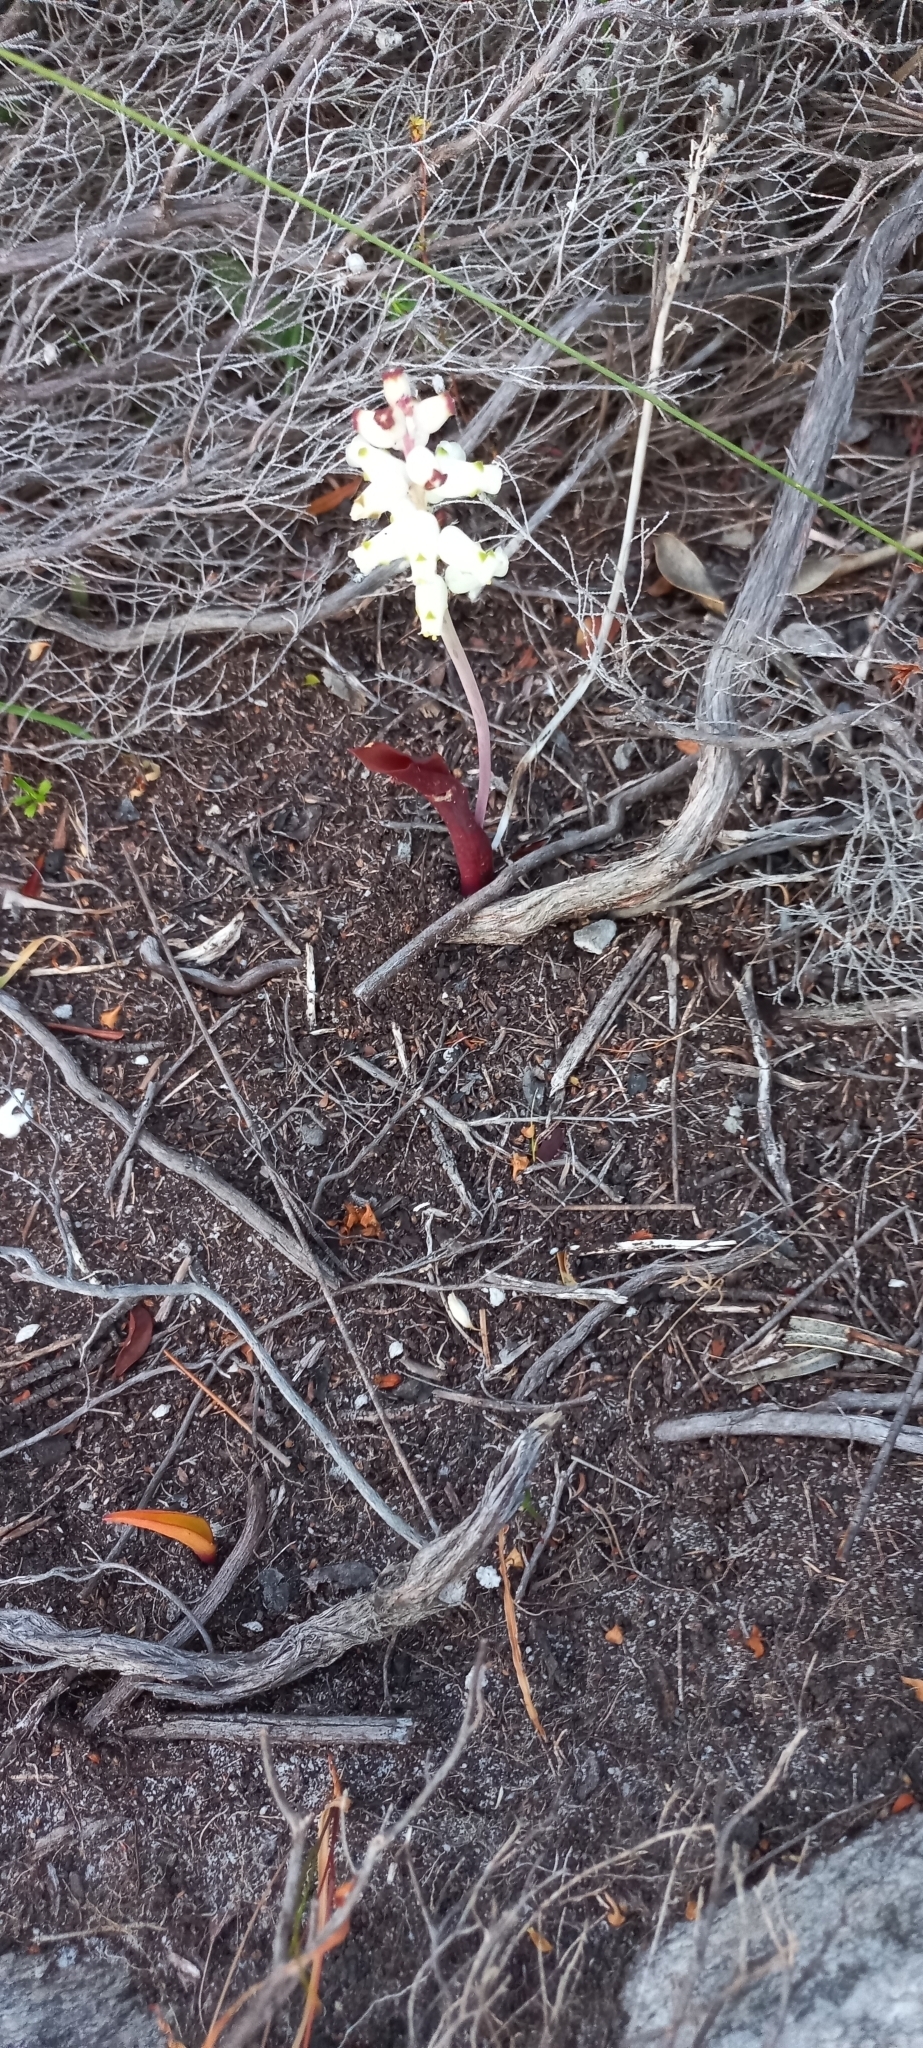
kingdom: Plantae
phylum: Tracheophyta
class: Liliopsida
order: Asparagales
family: Asparagaceae
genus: Lachenalia
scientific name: Lachenalia peersii
